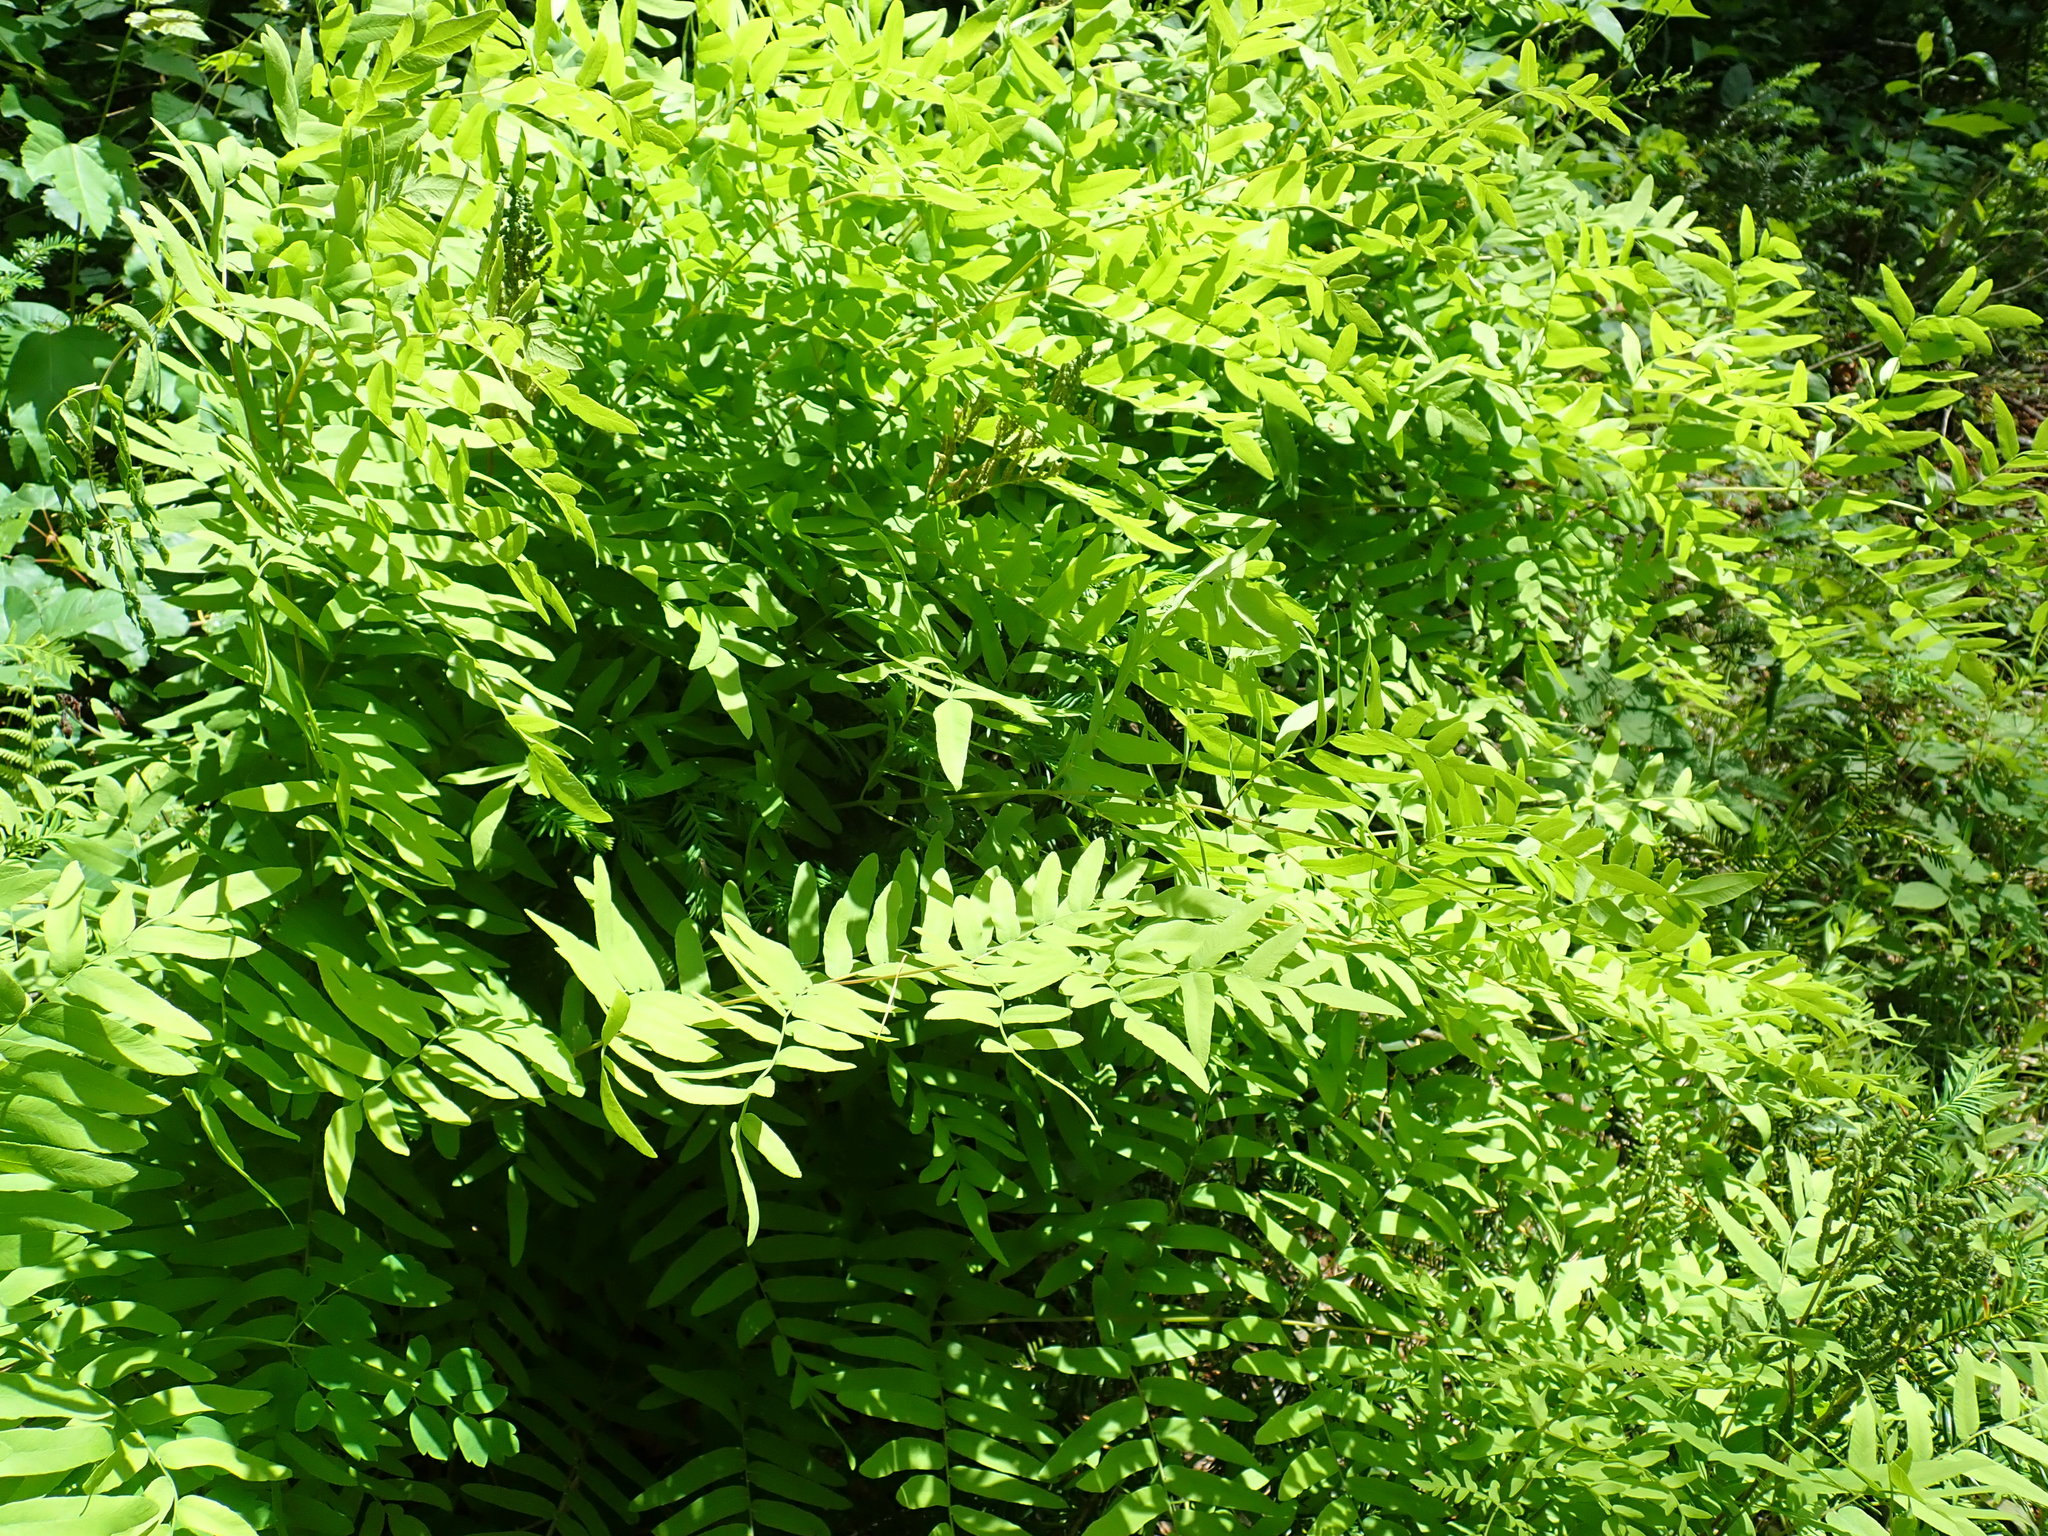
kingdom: Plantae
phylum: Tracheophyta
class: Polypodiopsida
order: Osmundales
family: Osmundaceae
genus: Osmunda
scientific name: Osmunda spectabilis
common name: American royal fern
